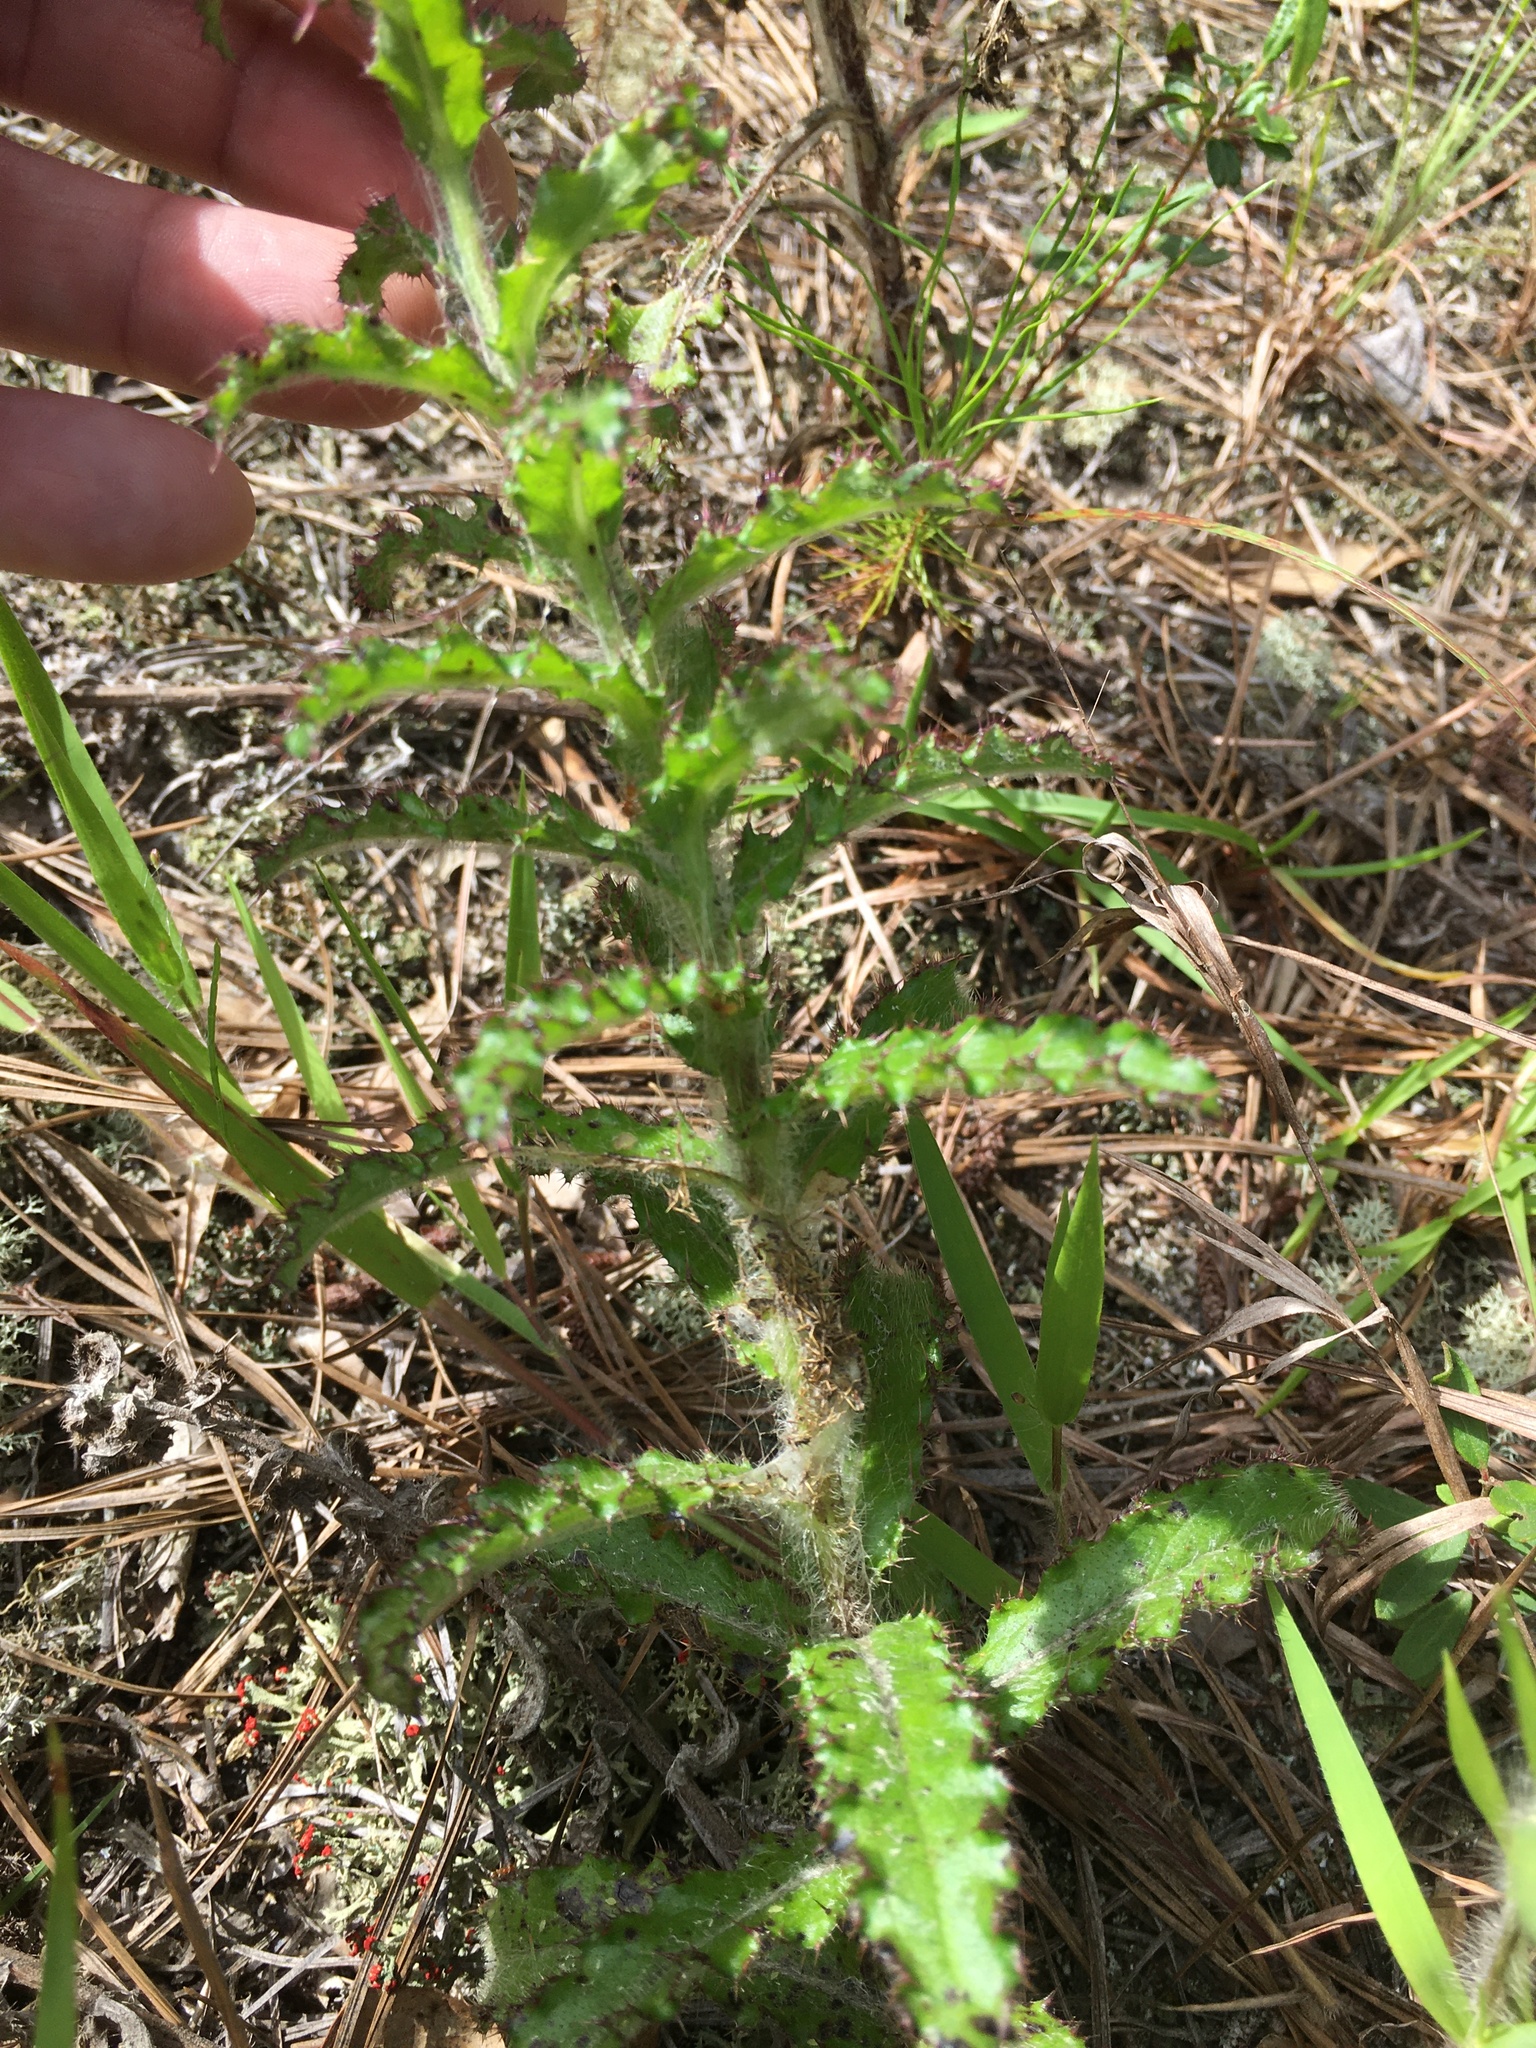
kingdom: Plantae
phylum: Tracheophyta
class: Magnoliopsida
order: Asterales
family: Asteraceae
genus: Cirsium
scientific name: Cirsium repandum
